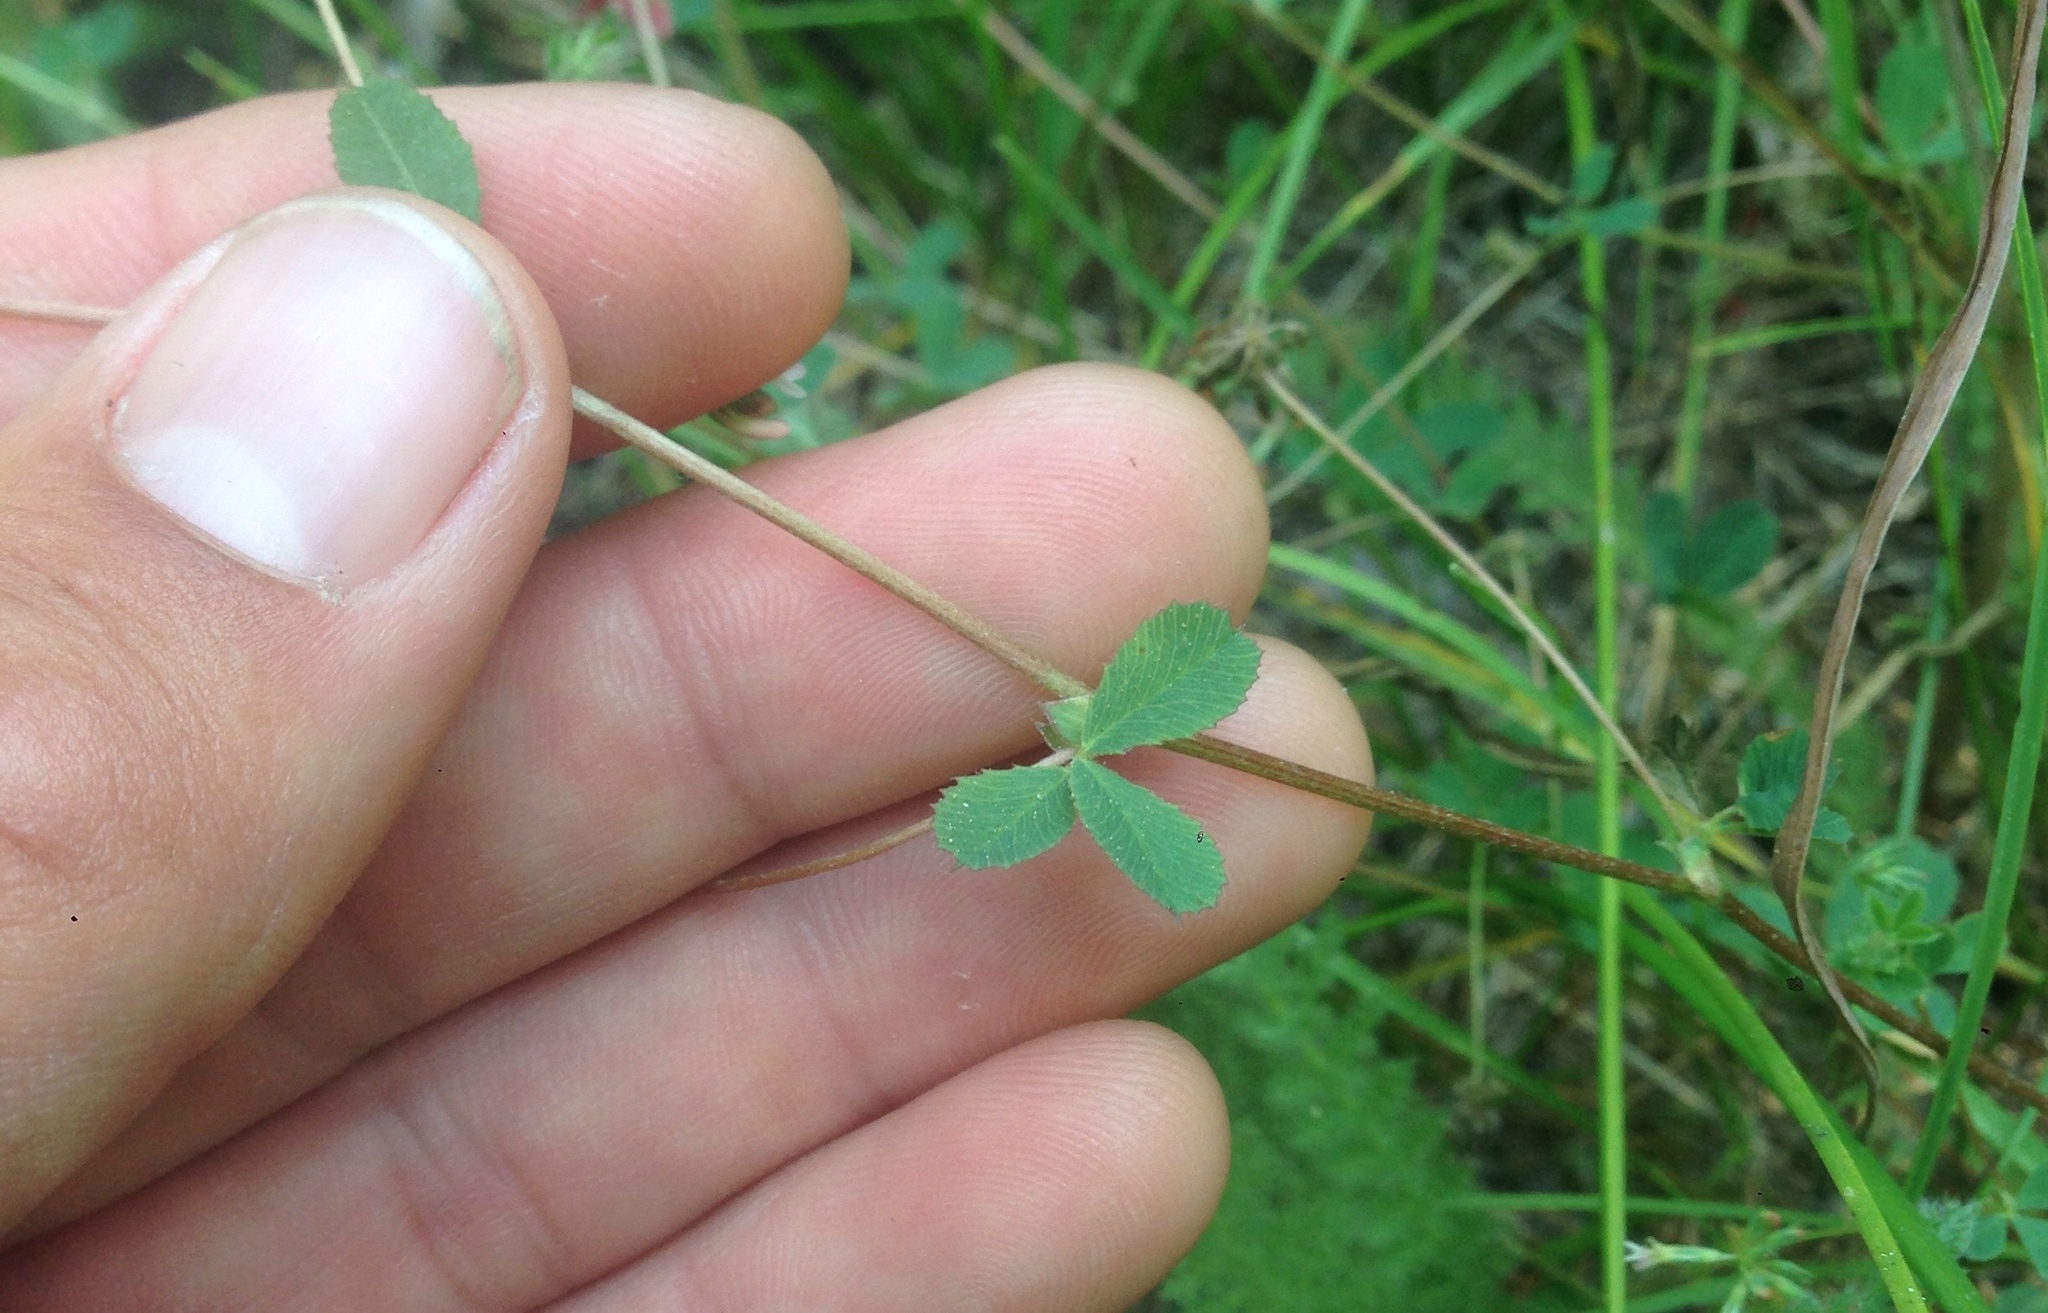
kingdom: Plantae
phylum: Tracheophyta
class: Magnoliopsida
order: Fabales
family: Fabaceae
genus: Trifolium
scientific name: Trifolium breweri
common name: Forest clover
